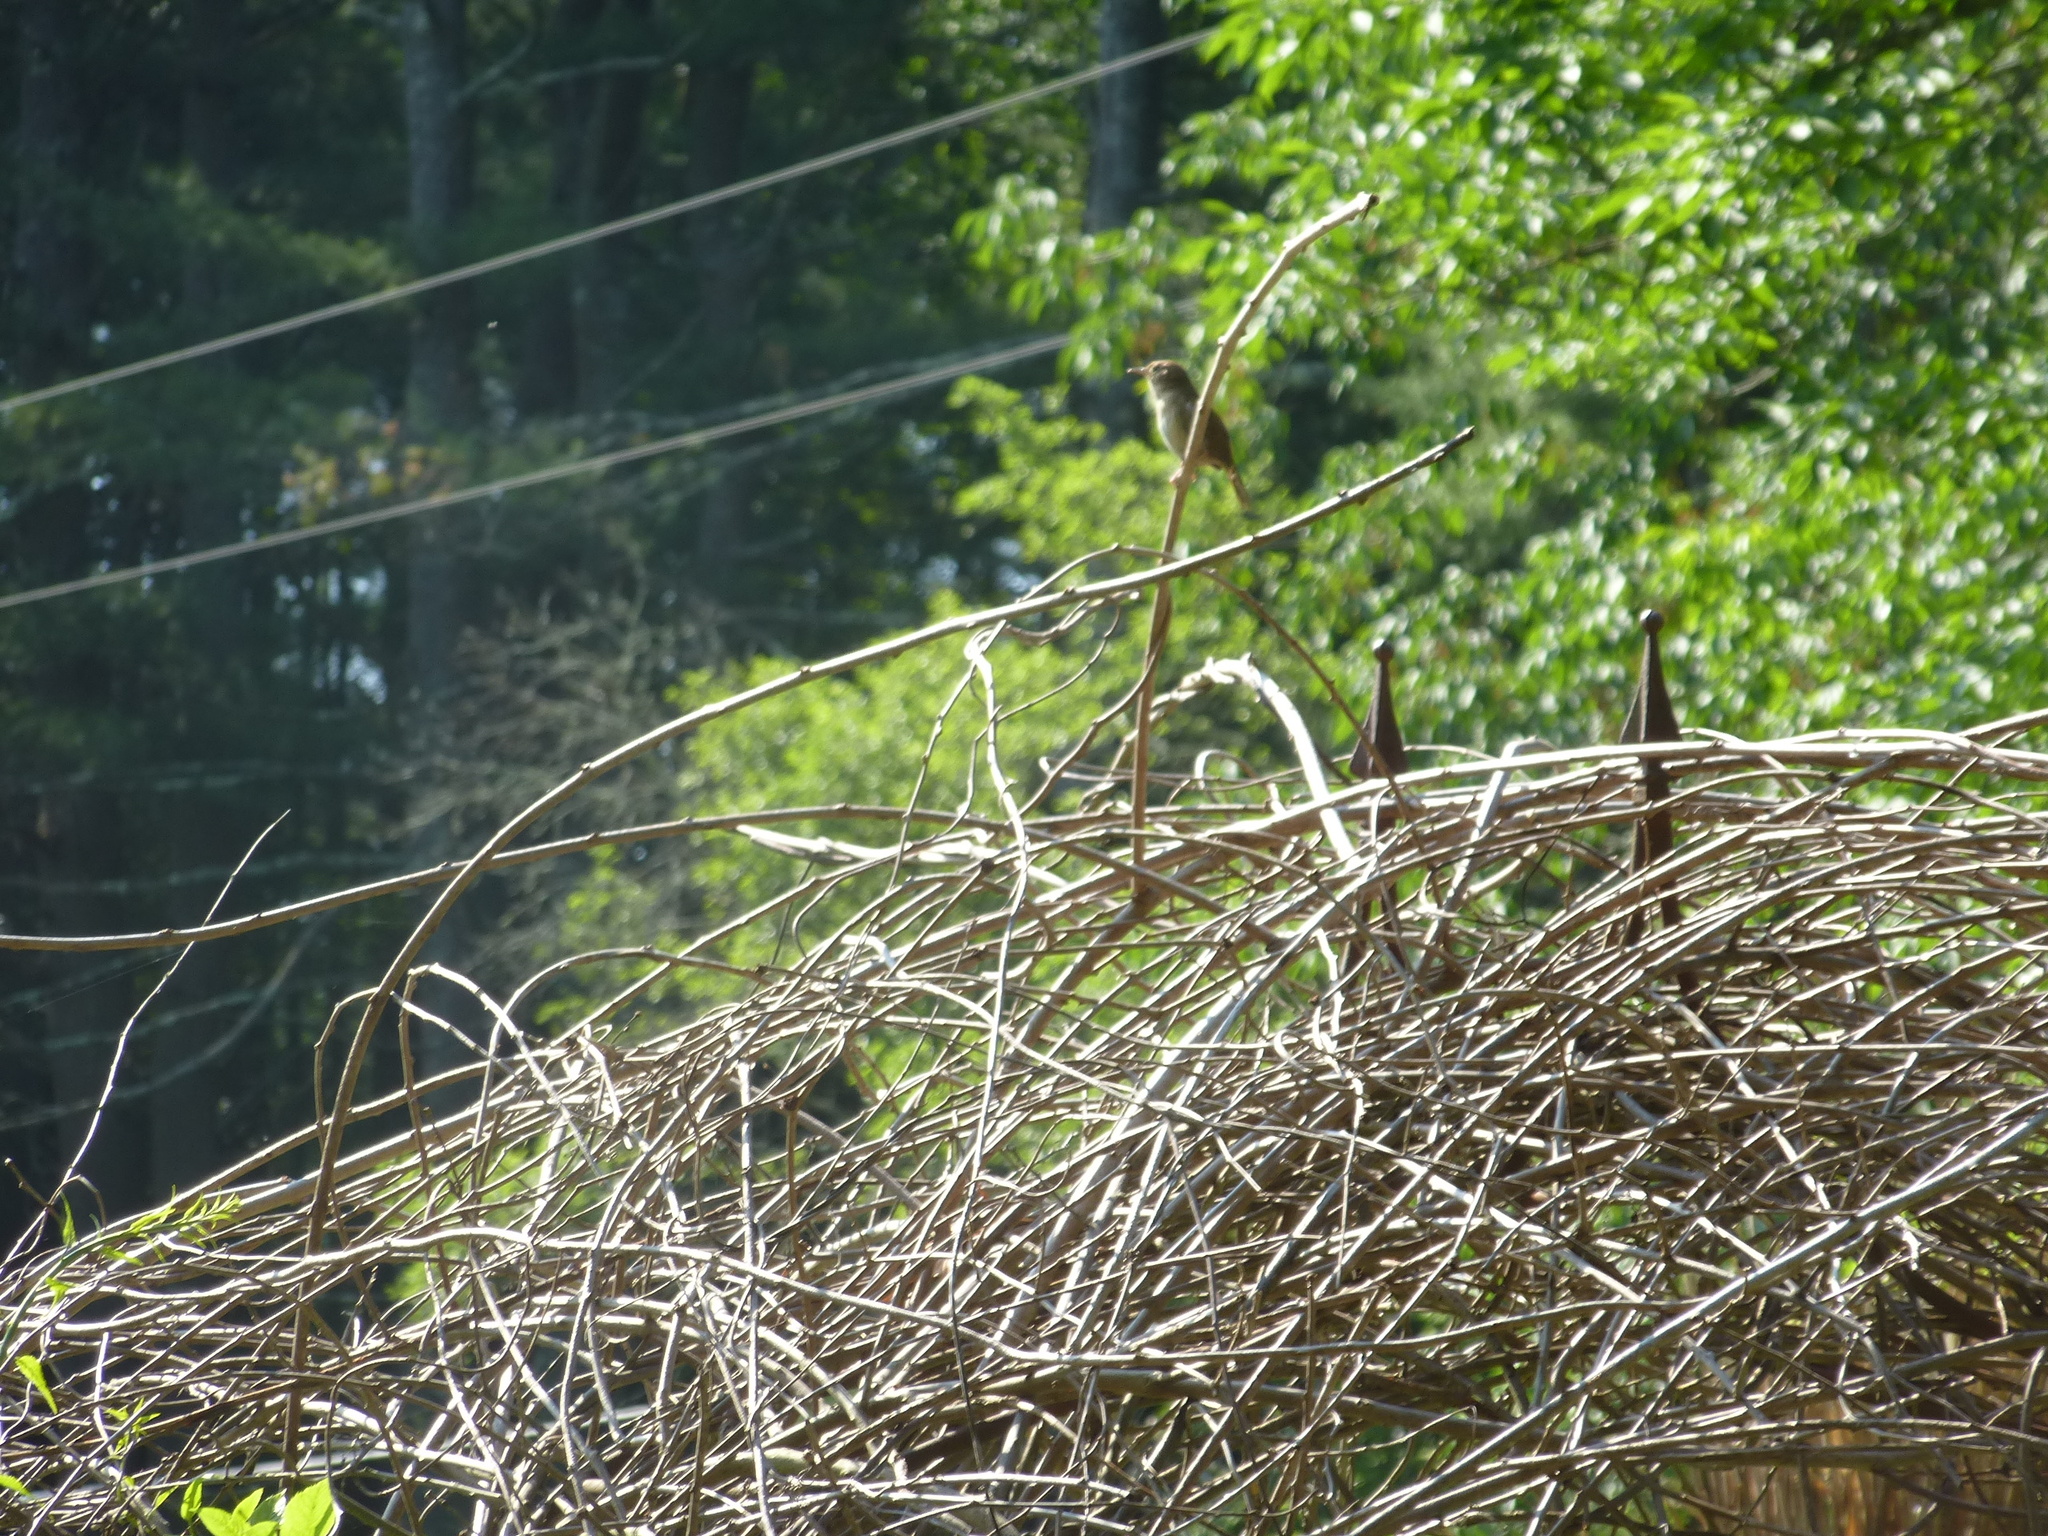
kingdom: Animalia
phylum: Chordata
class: Aves
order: Passeriformes
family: Troglodytidae
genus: Troglodytes
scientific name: Troglodytes aedon
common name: House wren
